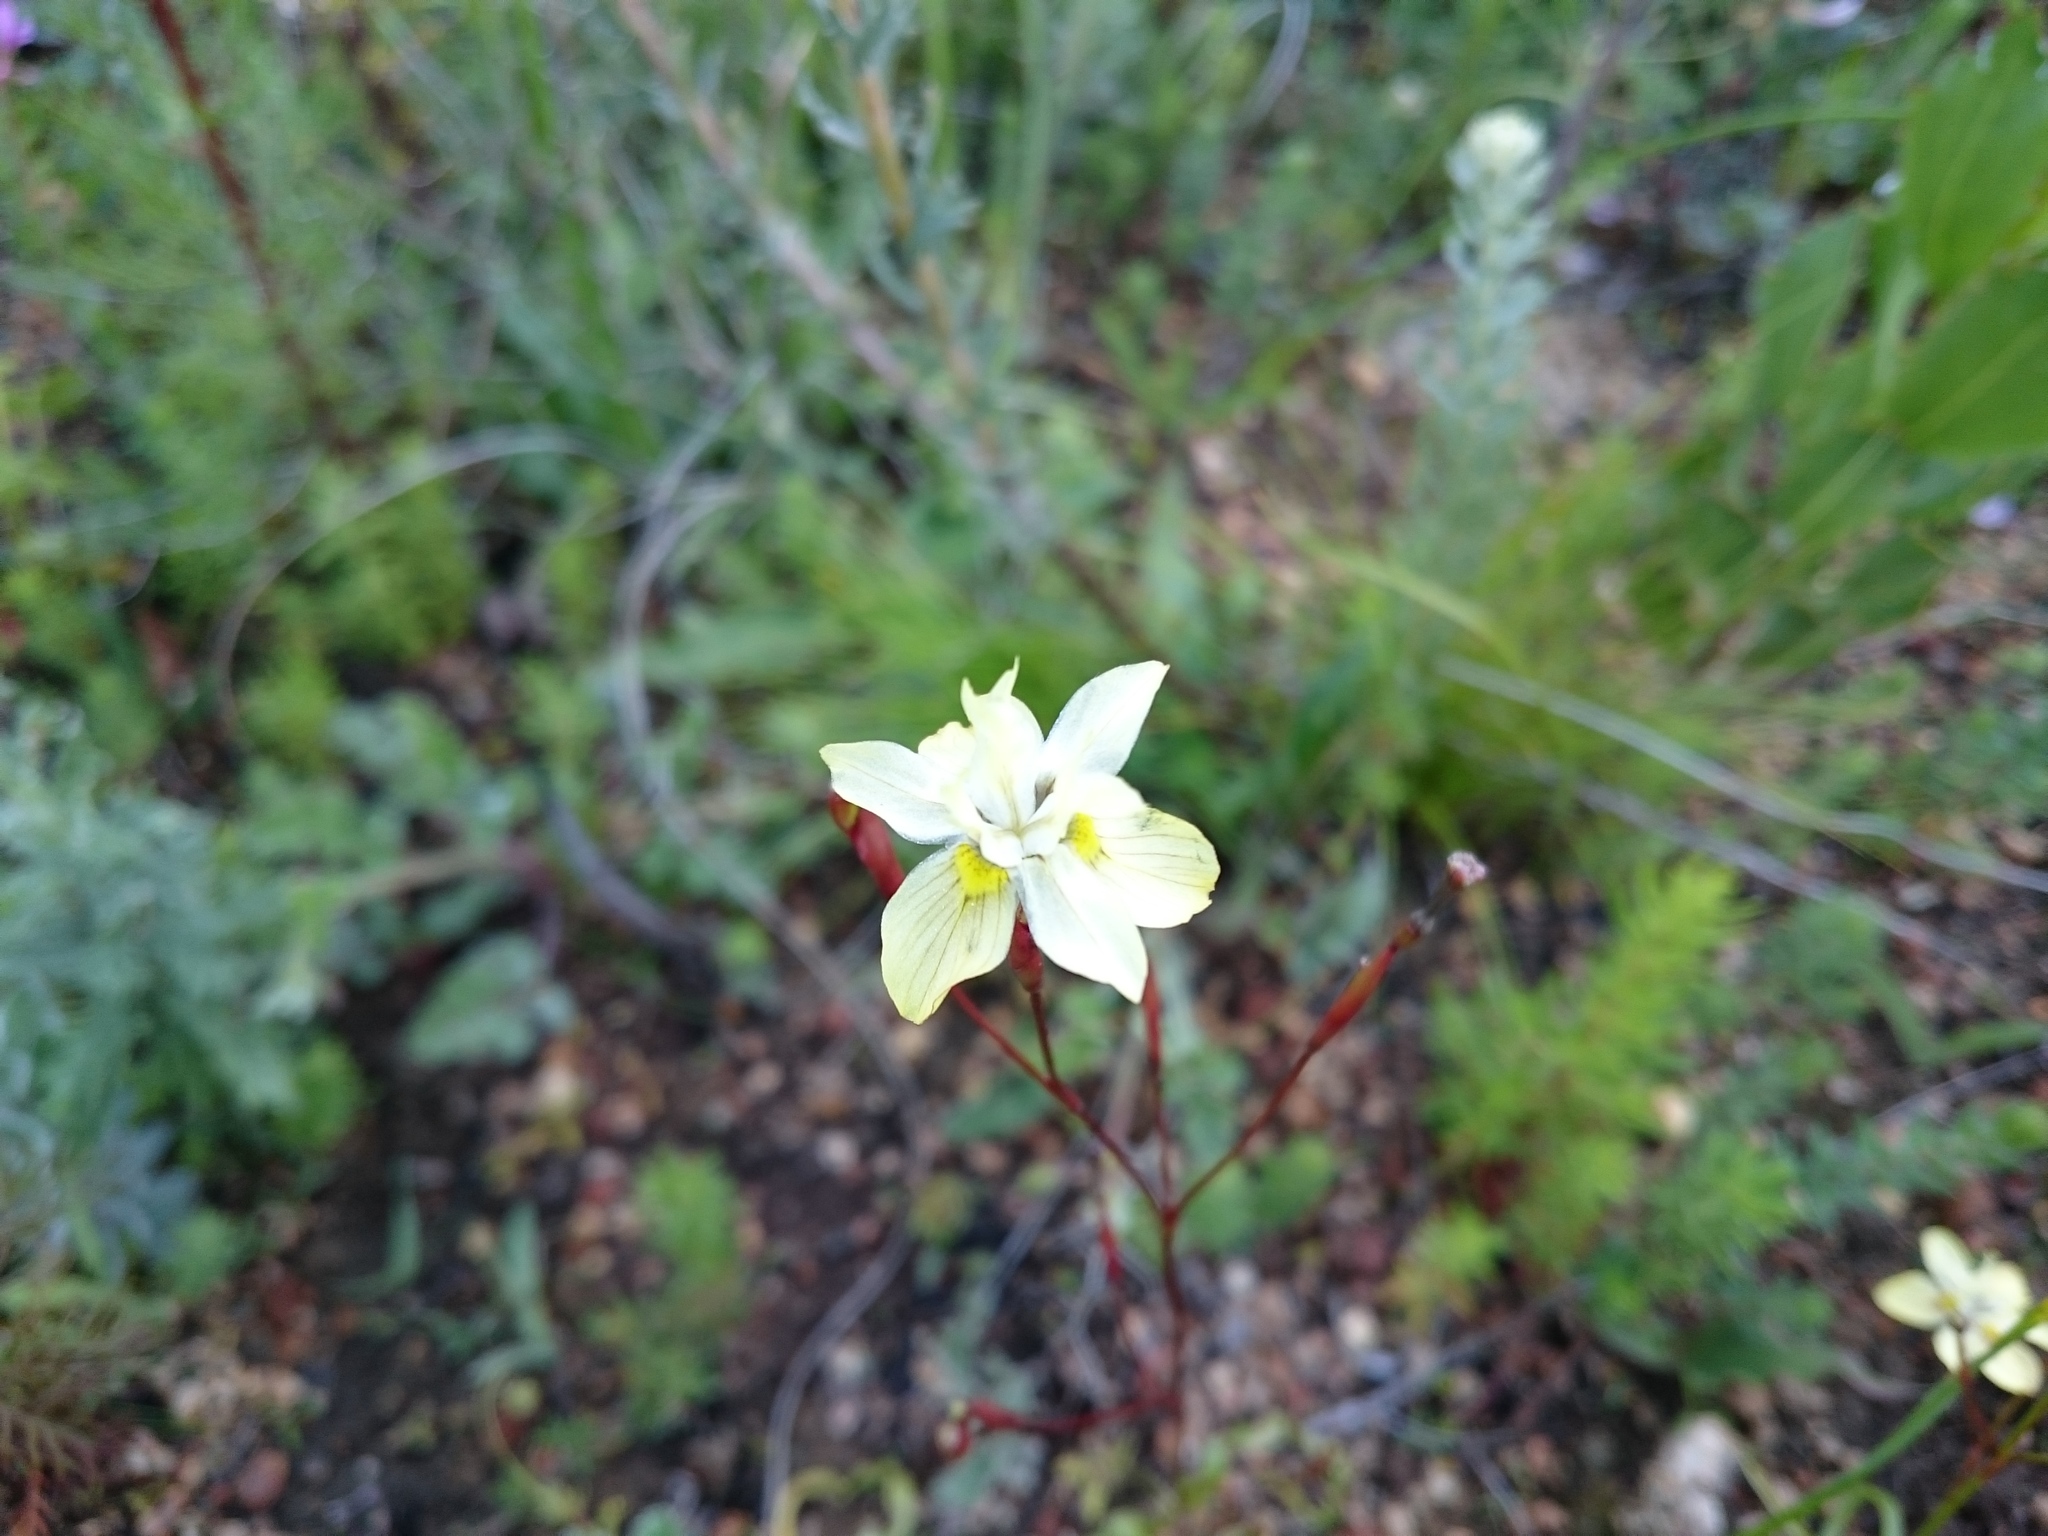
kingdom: Plantae
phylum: Tracheophyta
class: Liliopsida
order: Asparagales
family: Iridaceae
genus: Moraea
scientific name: Moraea gawleri
